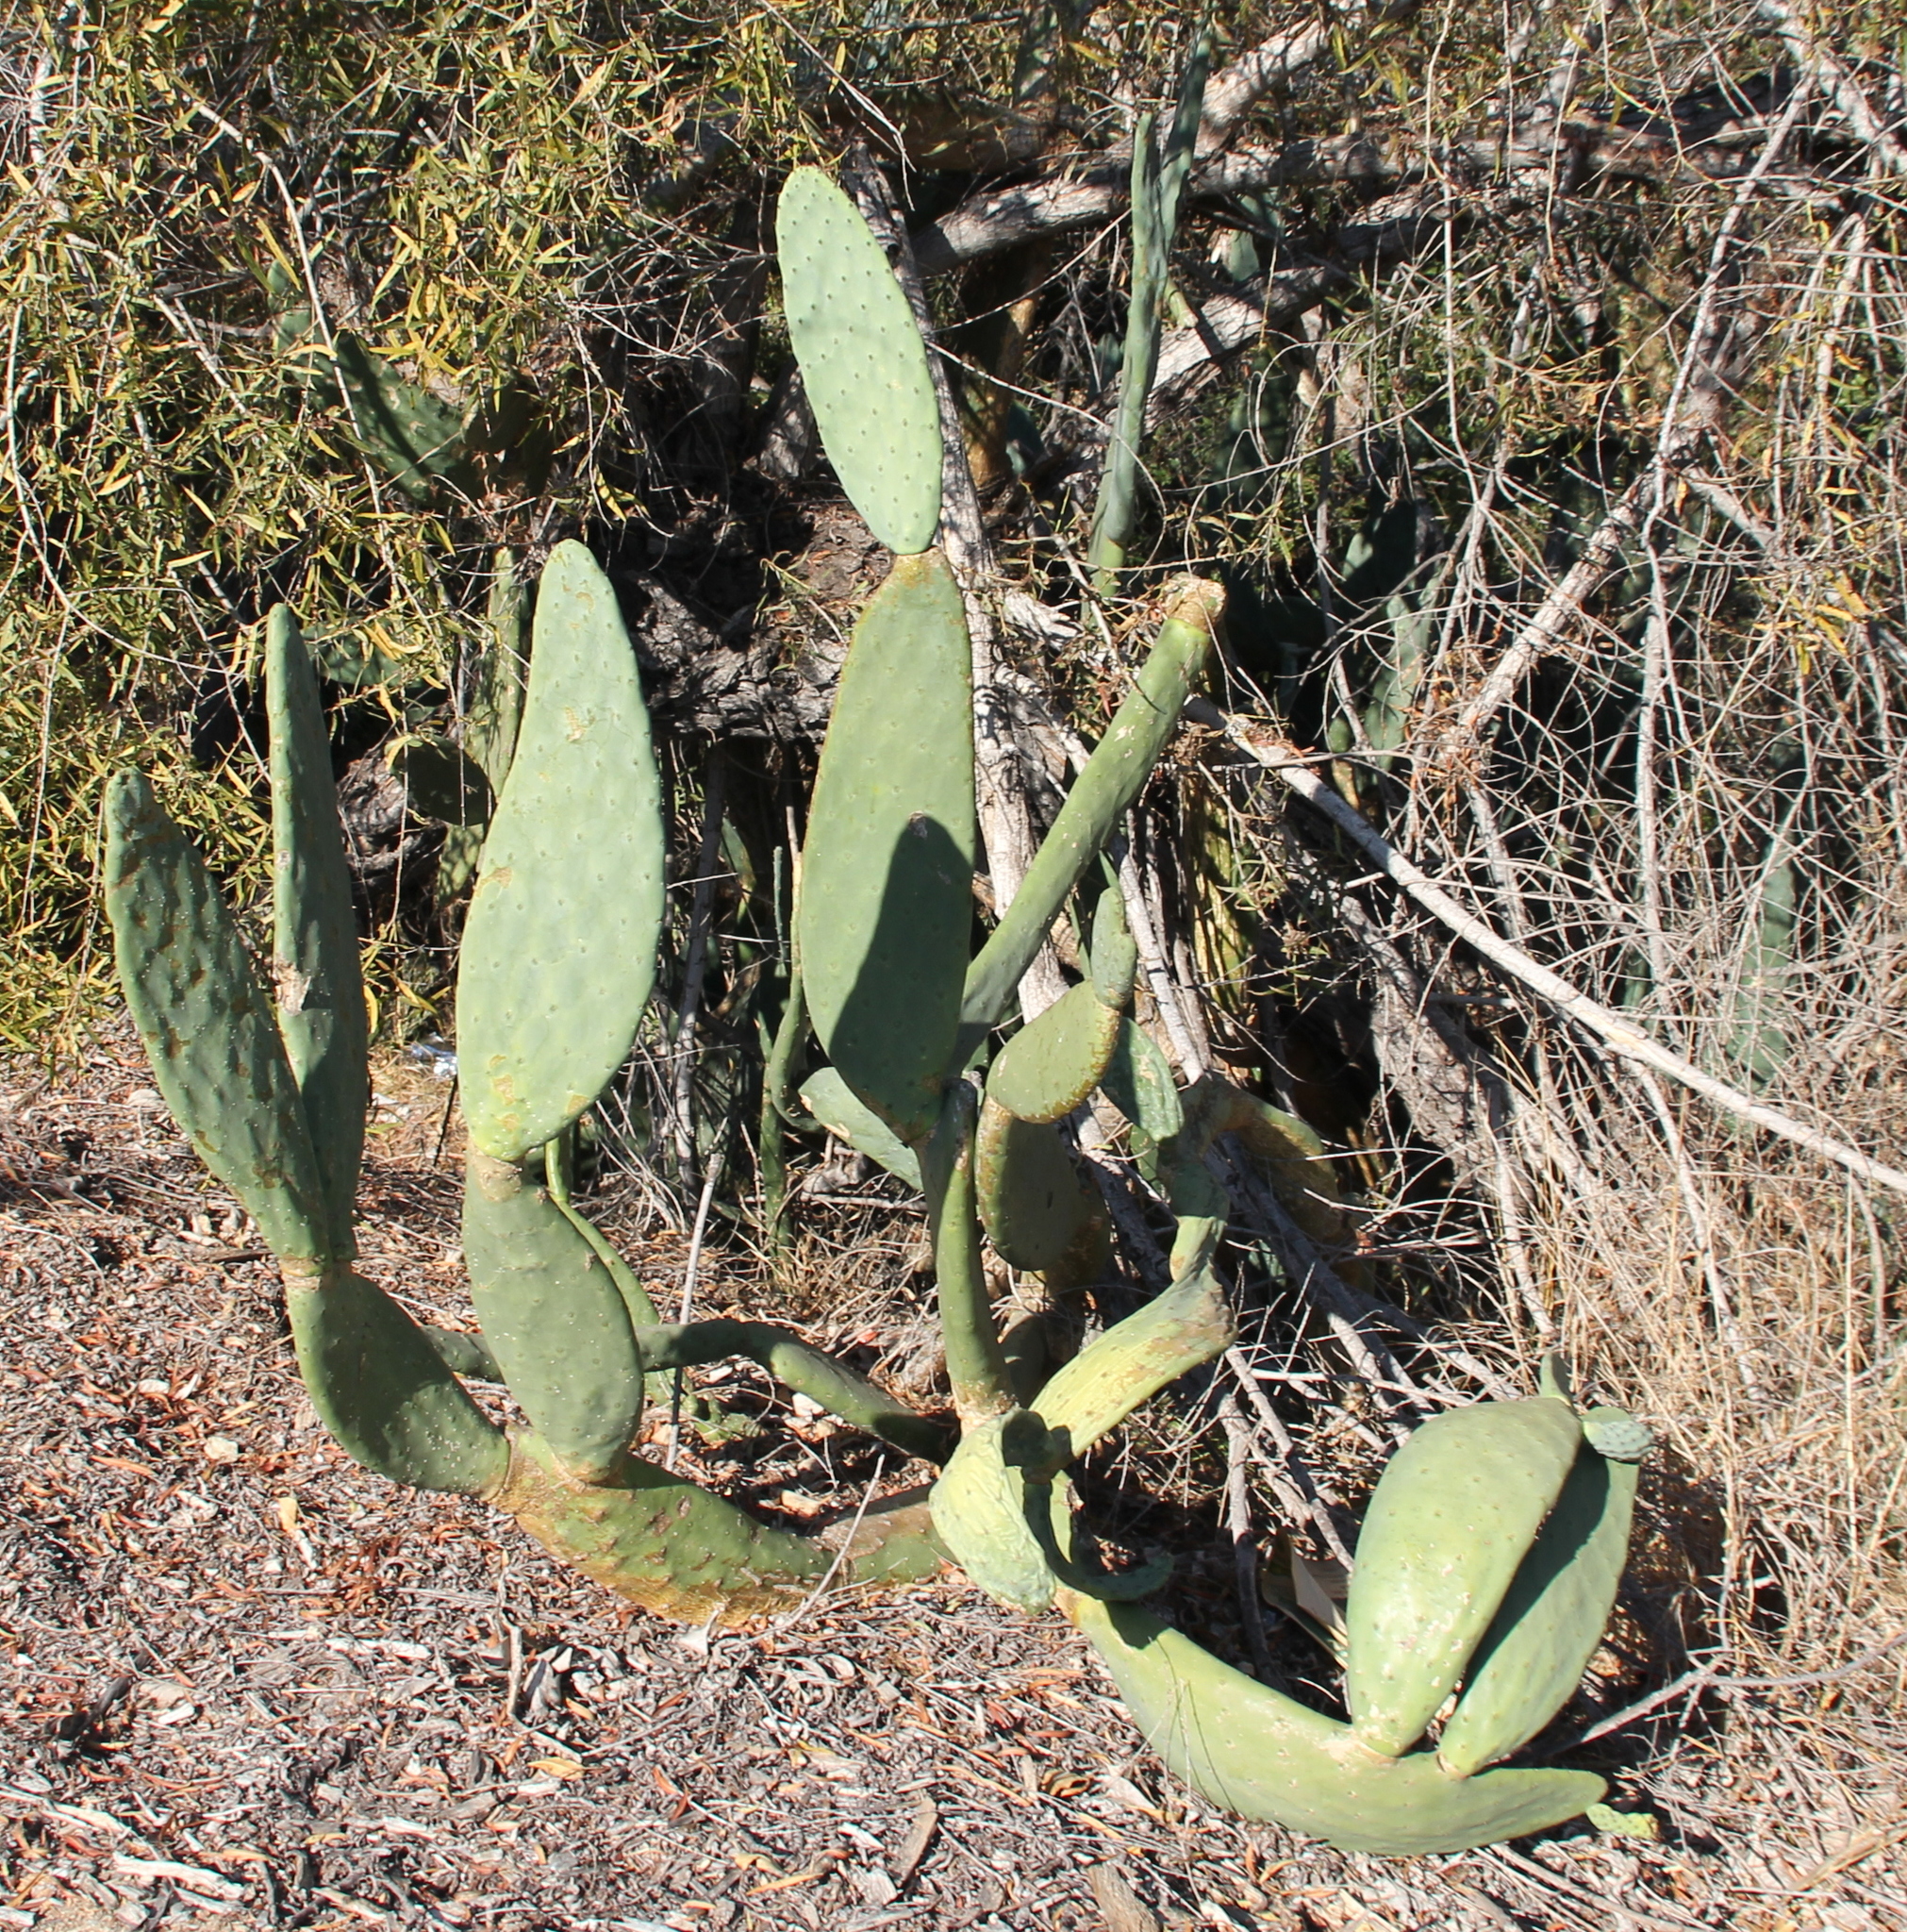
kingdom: Plantae
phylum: Tracheophyta
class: Magnoliopsida
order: Caryophyllales
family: Cactaceae
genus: Opuntia
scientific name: Opuntia ficus-indica
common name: Barbary fig
